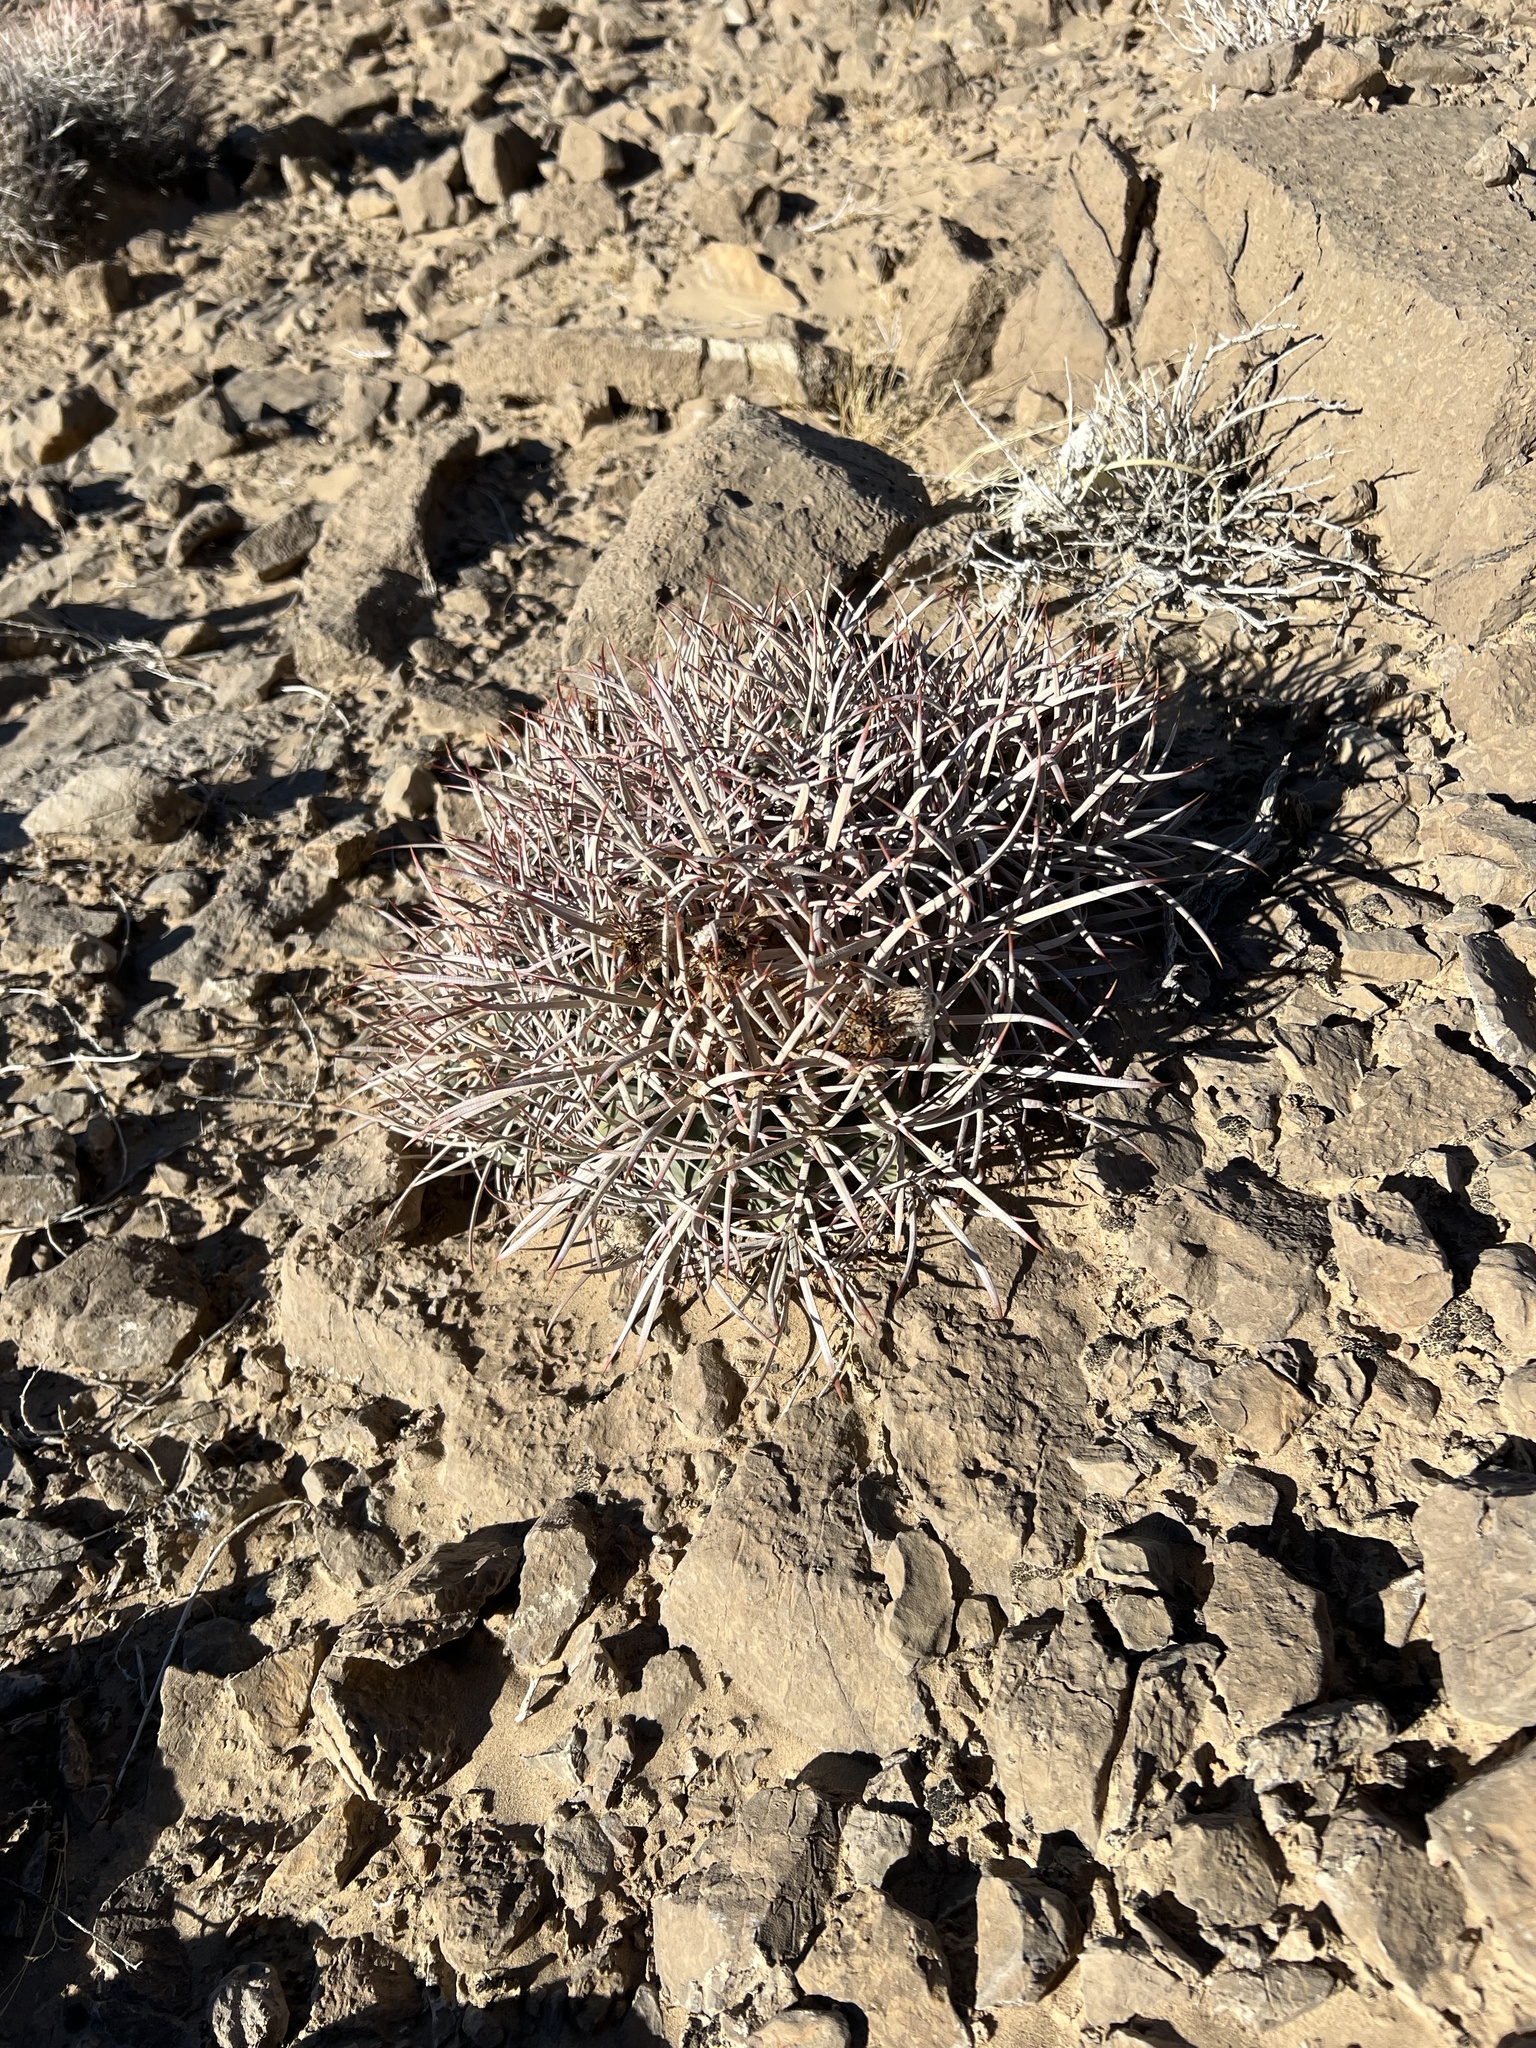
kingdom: Plantae
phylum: Tracheophyta
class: Magnoliopsida
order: Caryophyllales
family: Cactaceae
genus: Echinocactus
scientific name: Echinocactus polycephalus
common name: Cottontop cactus
